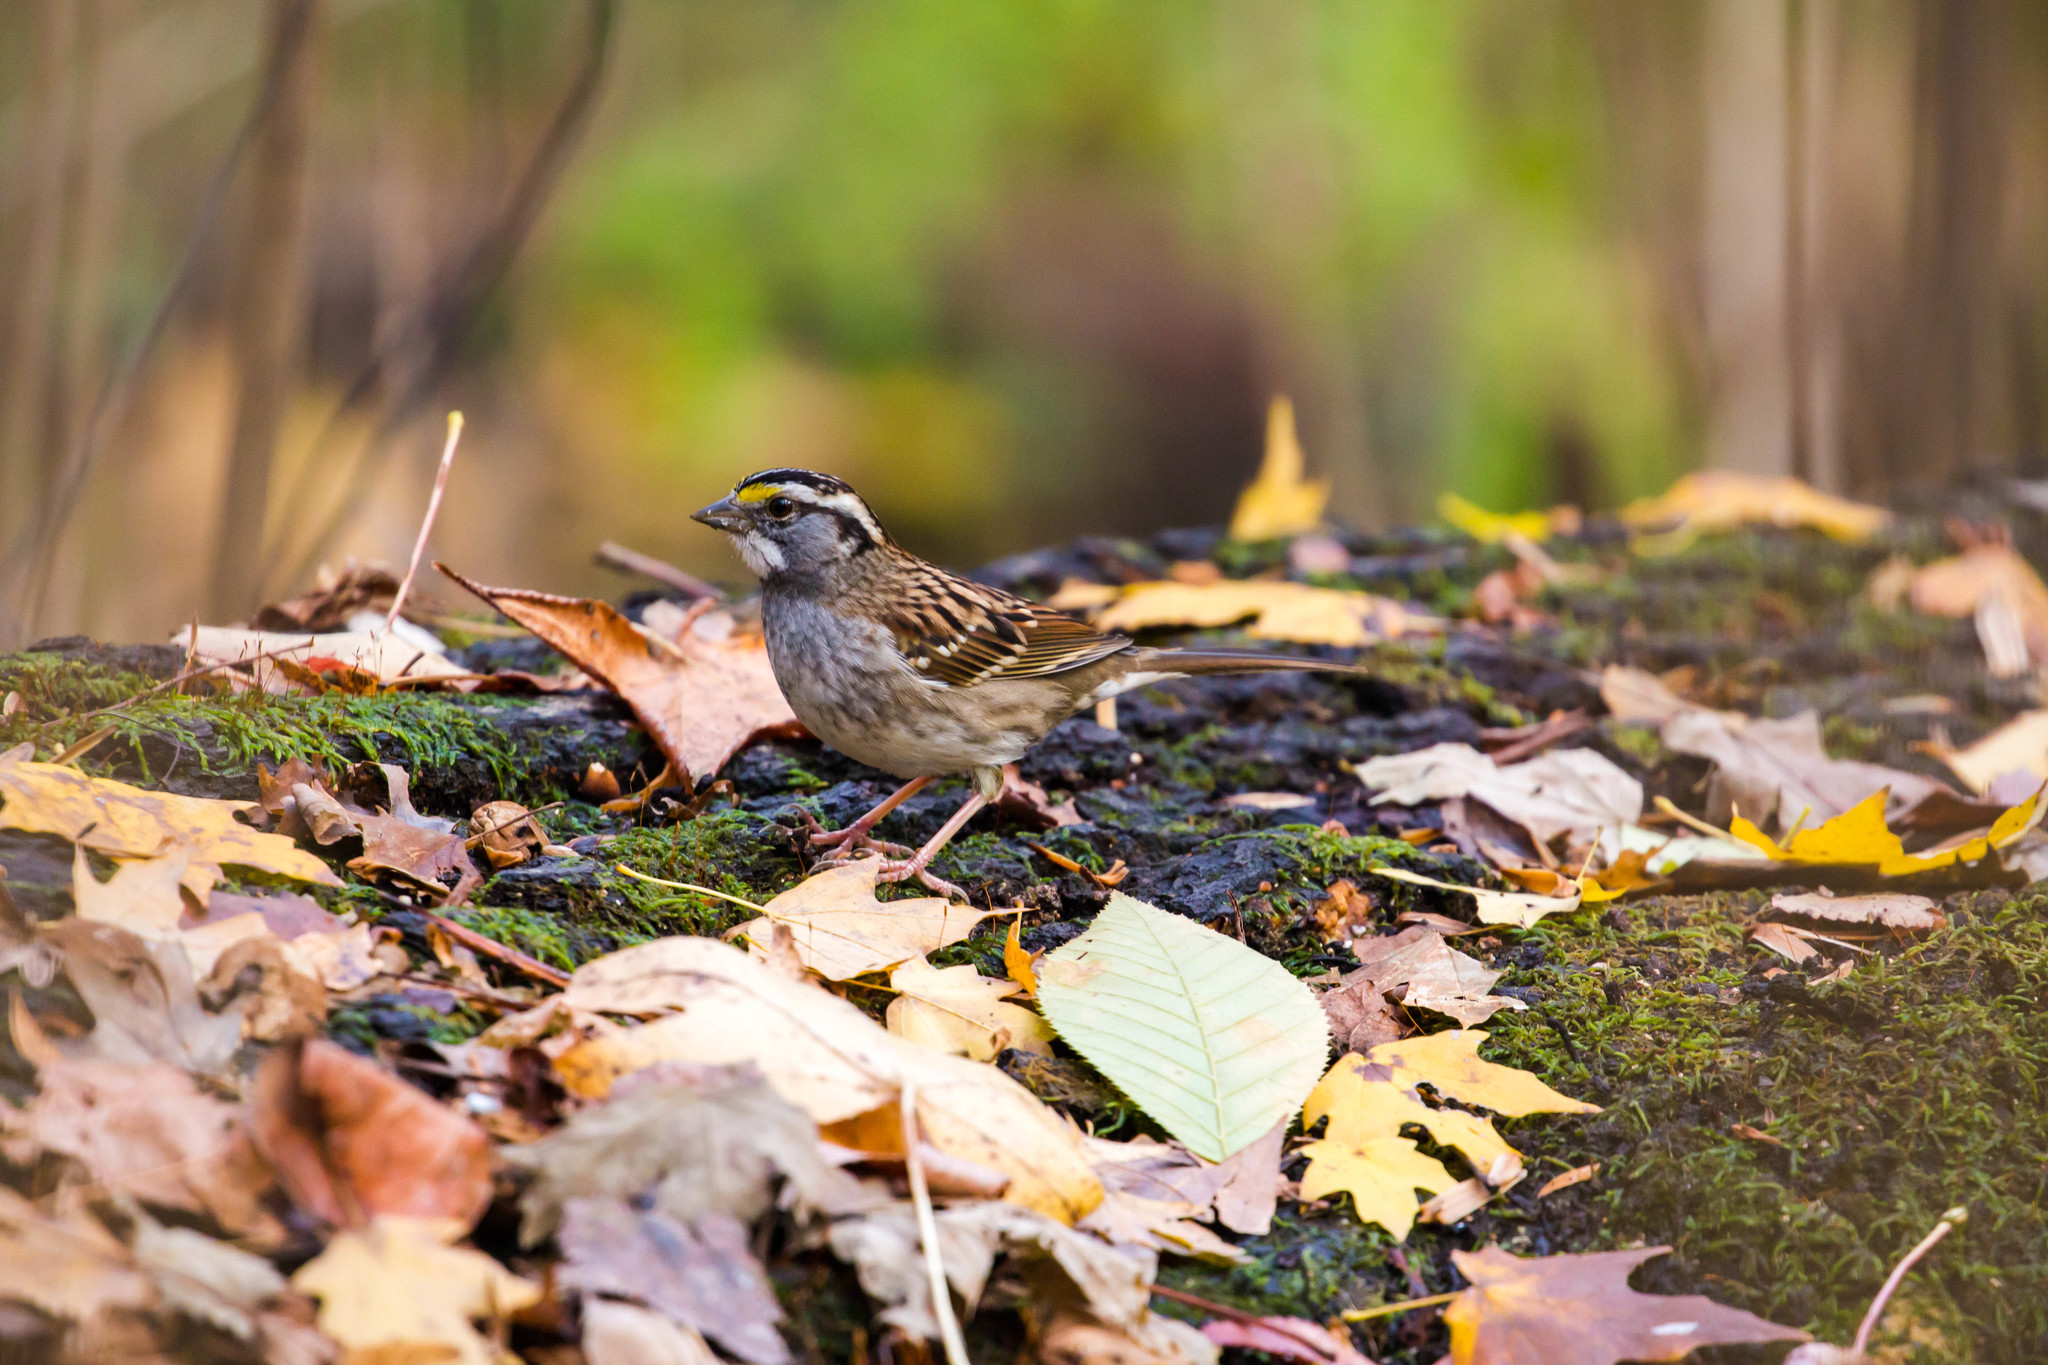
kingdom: Animalia
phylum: Chordata
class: Aves
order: Passeriformes
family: Passerellidae
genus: Zonotrichia
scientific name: Zonotrichia albicollis
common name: White-throated sparrow
